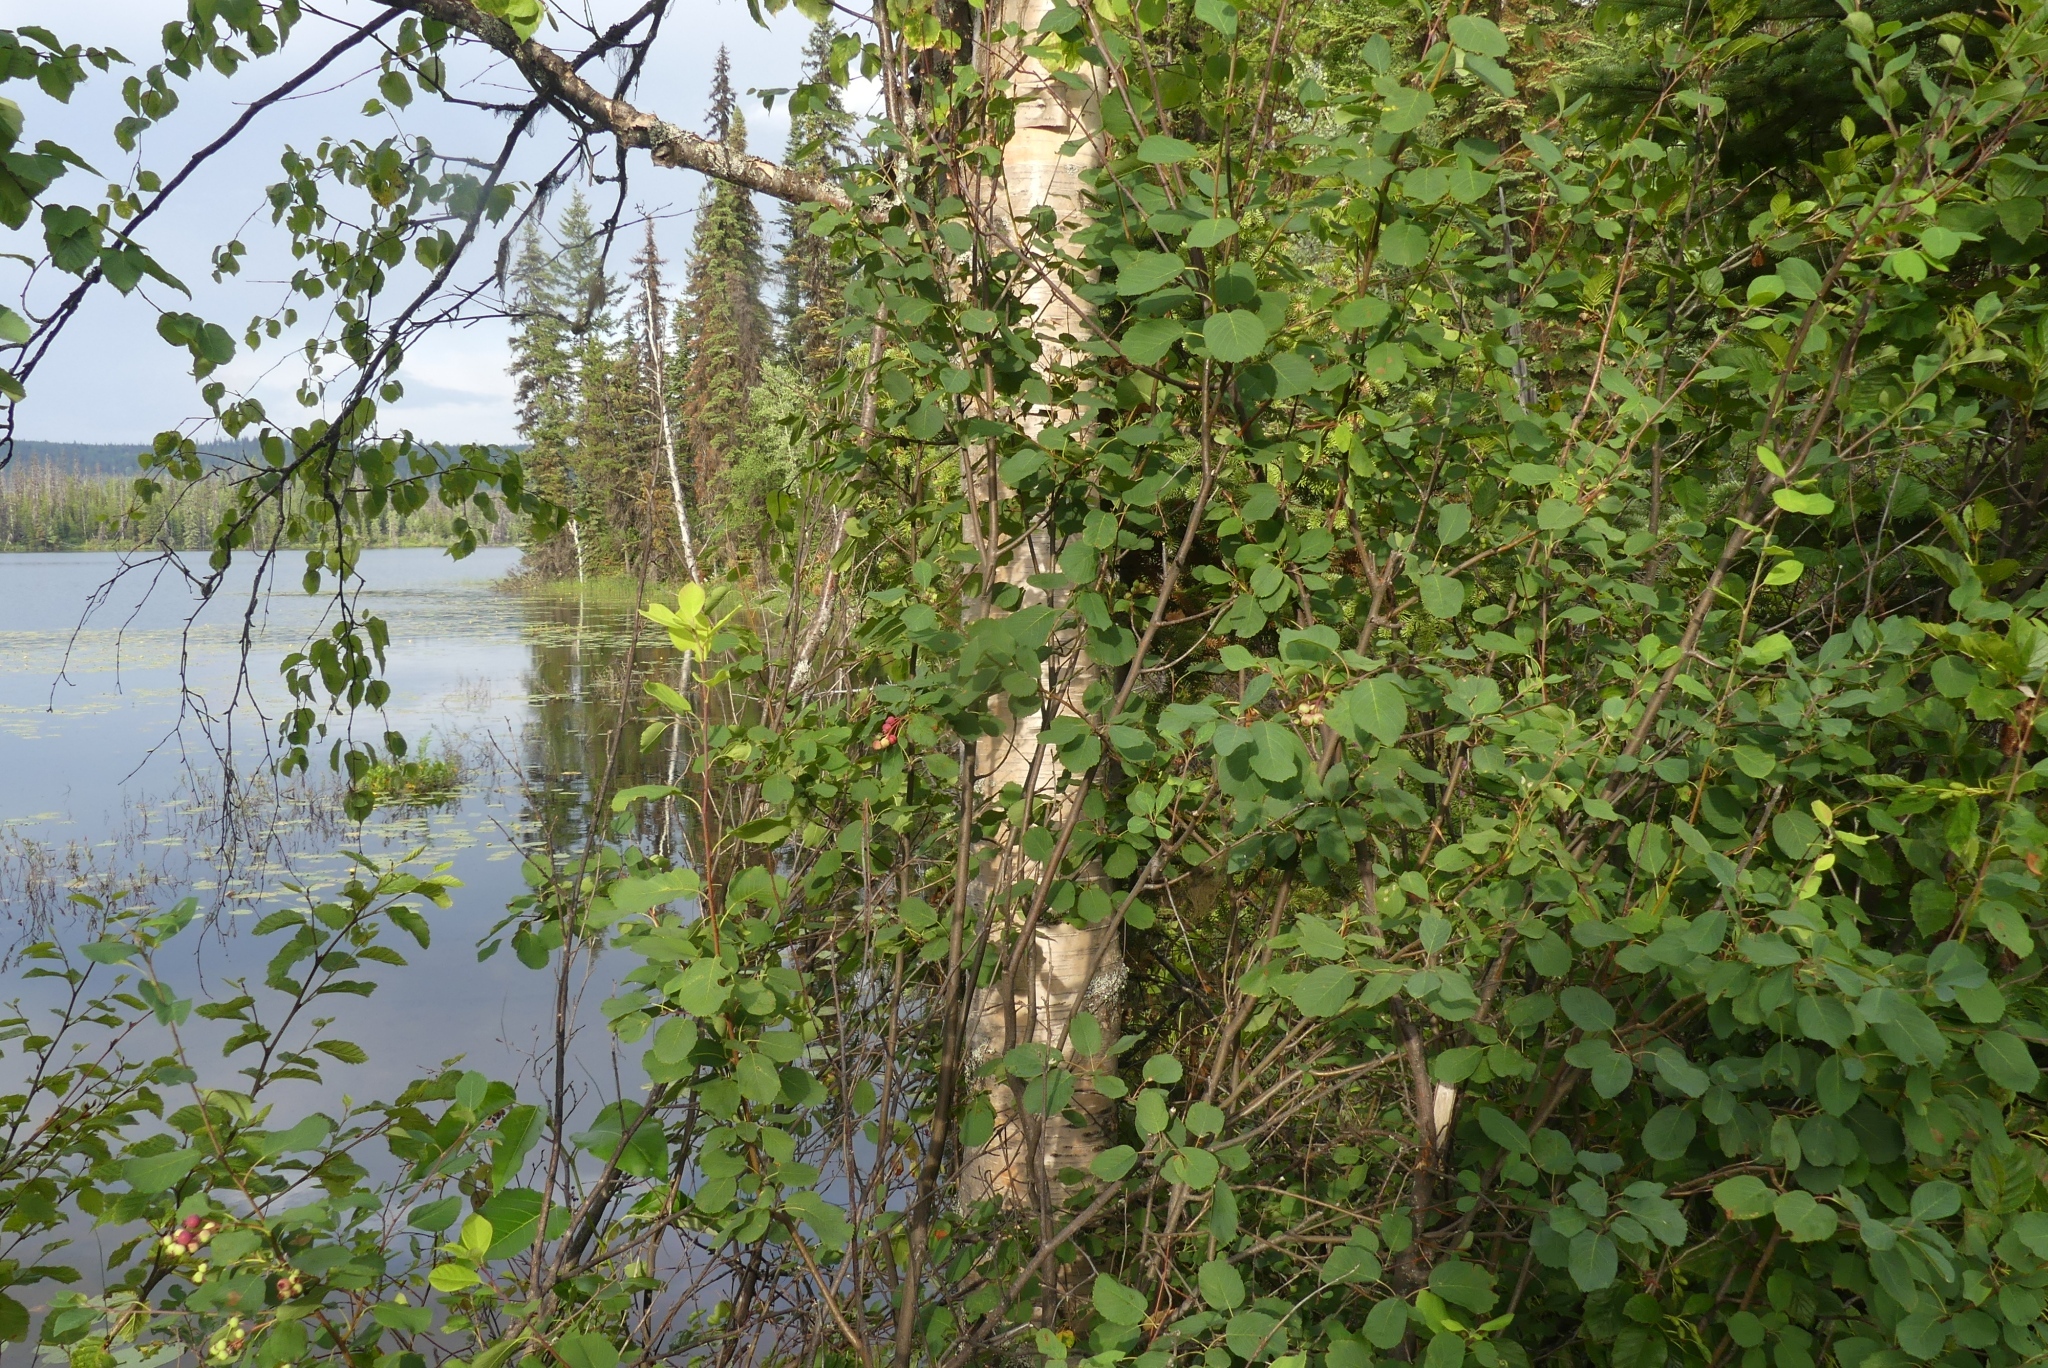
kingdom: Plantae
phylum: Tracheophyta
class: Magnoliopsida
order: Rosales
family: Rosaceae
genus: Amelanchier
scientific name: Amelanchier alnifolia
